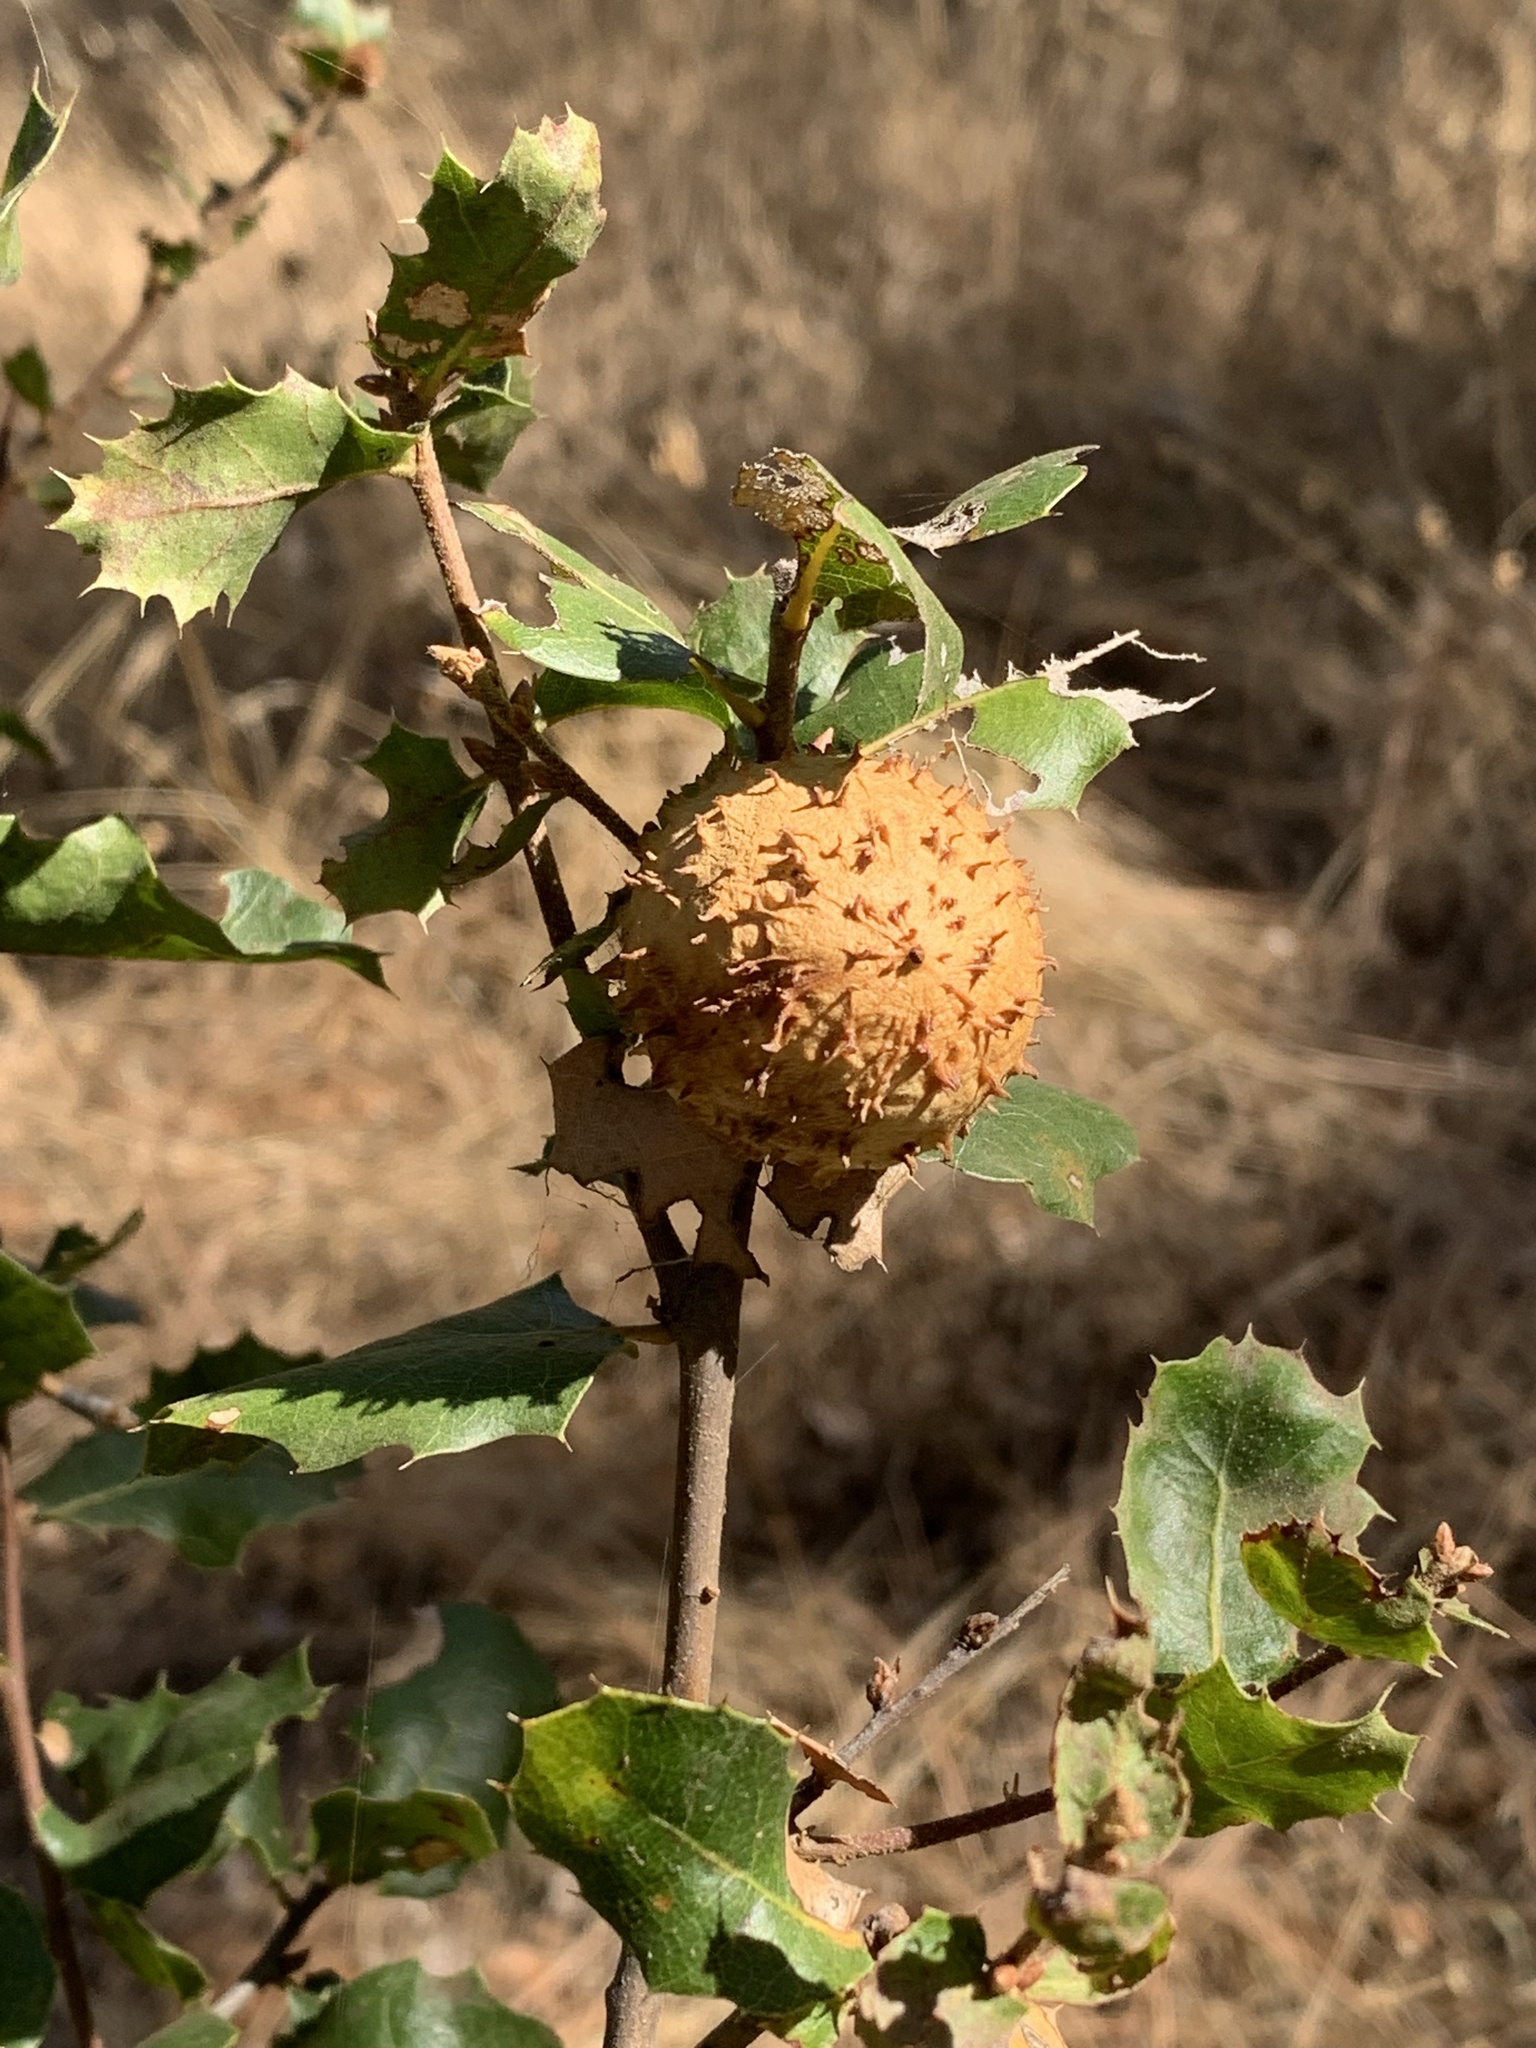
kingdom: Animalia
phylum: Arthropoda
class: Insecta
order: Hymenoptera
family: Cynipidae
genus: Amphibolips
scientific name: Amphibolips quercuspomiformis
